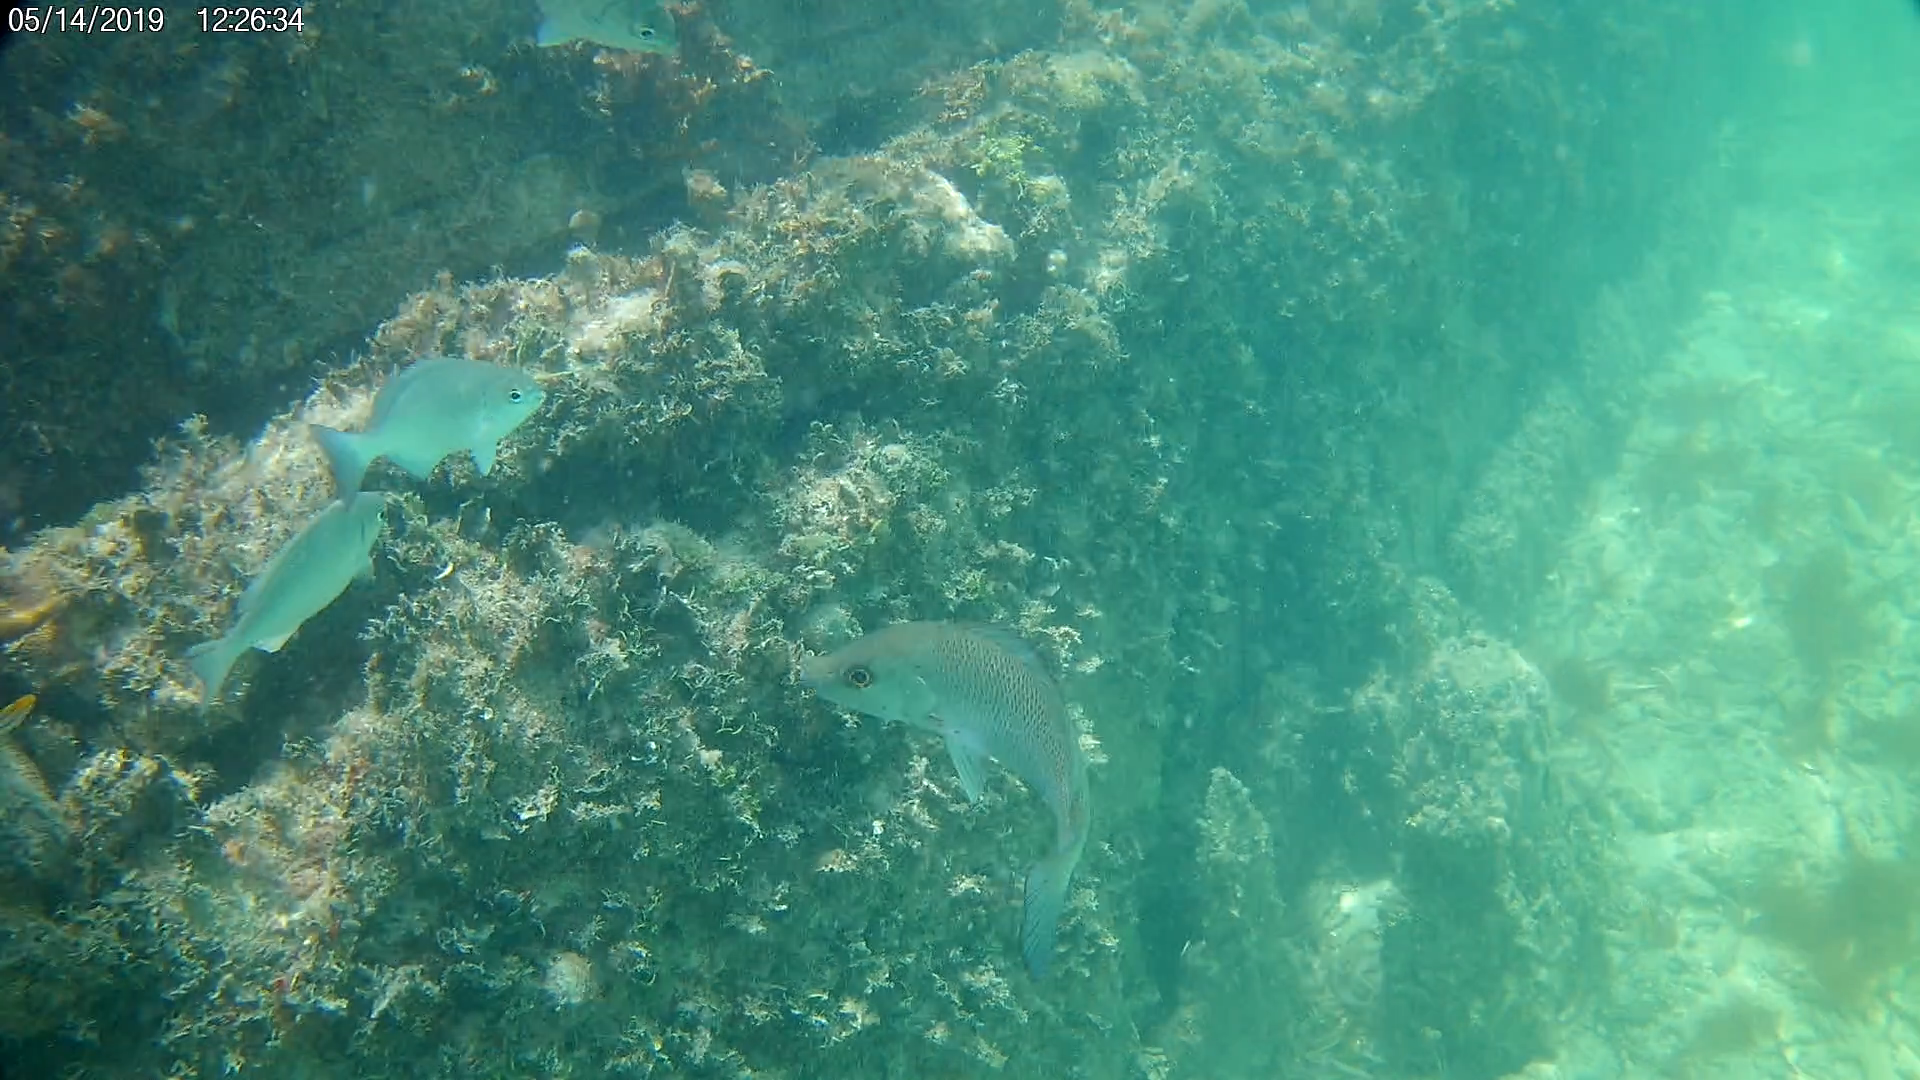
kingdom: Animalia
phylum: Chordata
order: Perciformes
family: Lutjanidae
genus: Lutjanus
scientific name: Lutjanus griseus
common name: Gray snapper
